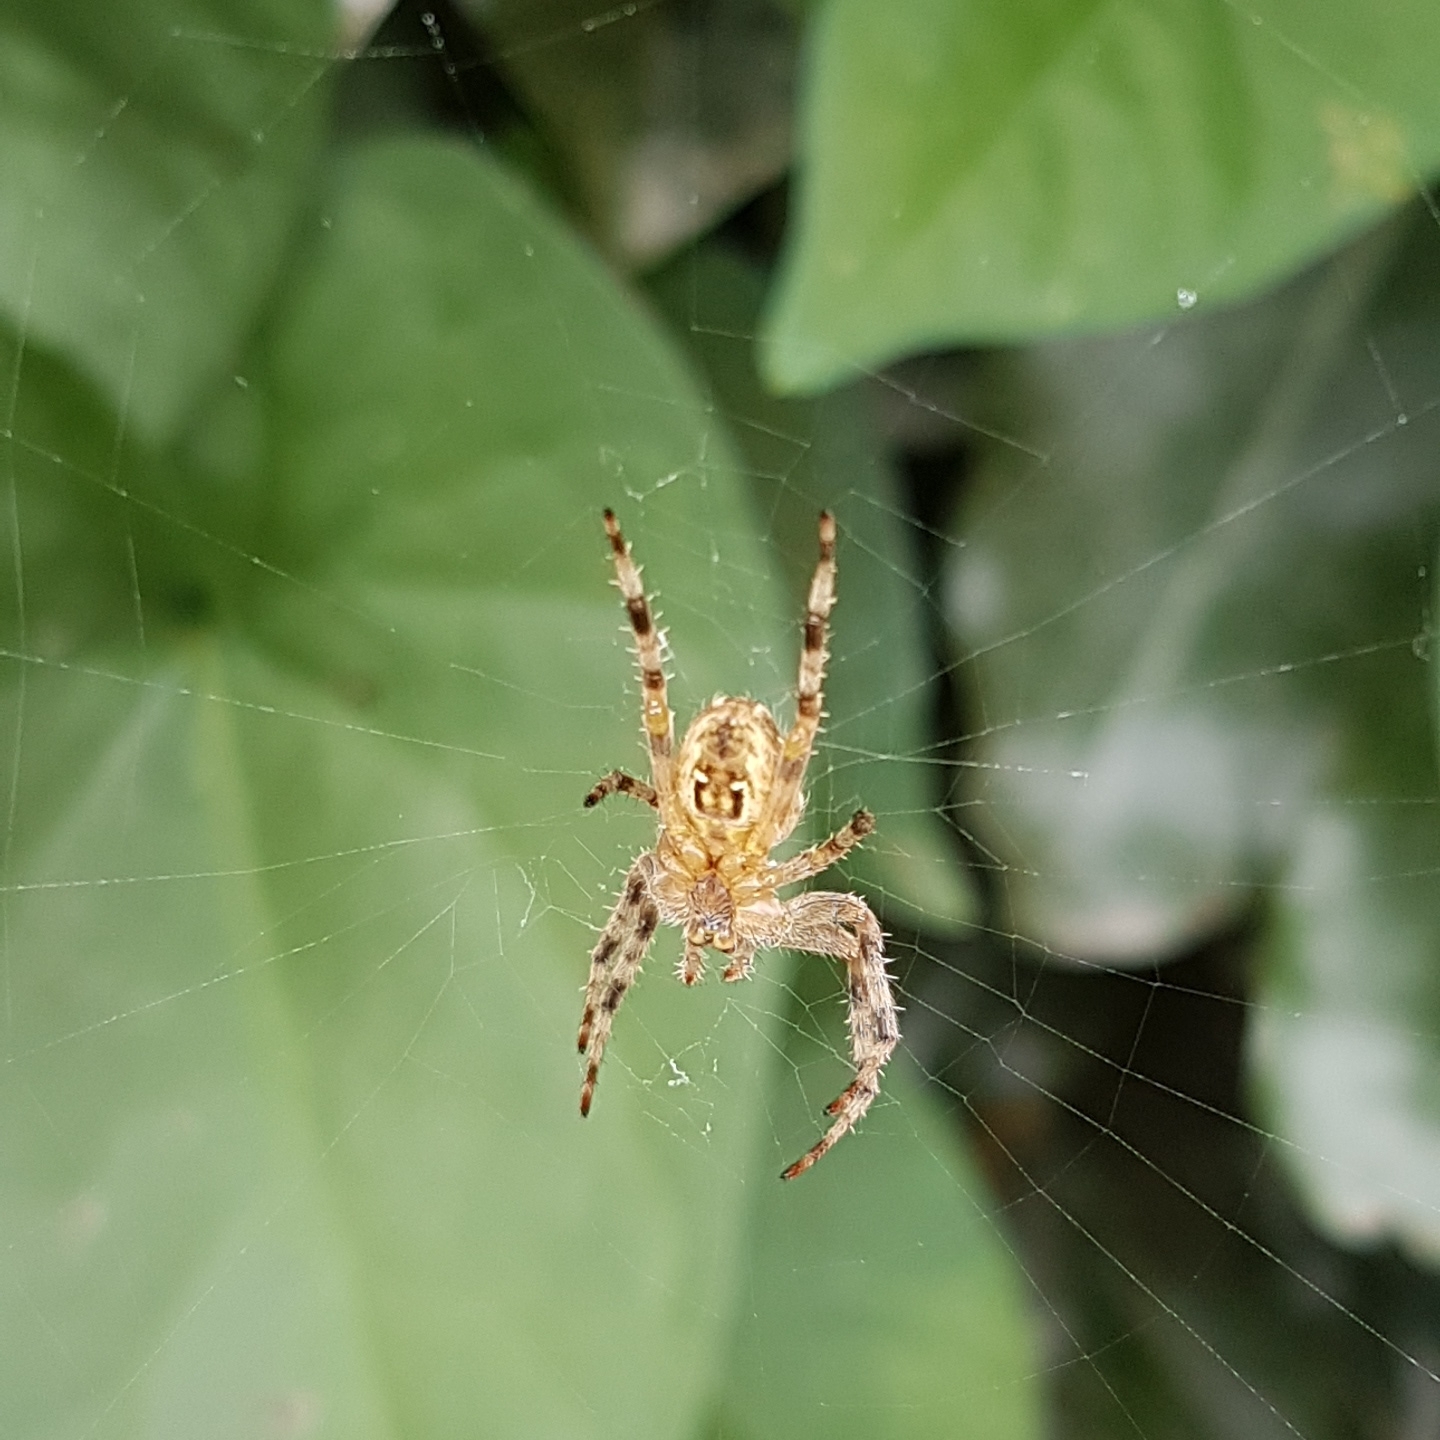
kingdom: Animalia
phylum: Arthropoda
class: Arachnida
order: Araneae
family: Araneidae
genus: Araneus
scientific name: Araneus diadematus
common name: Cross orbweaver
